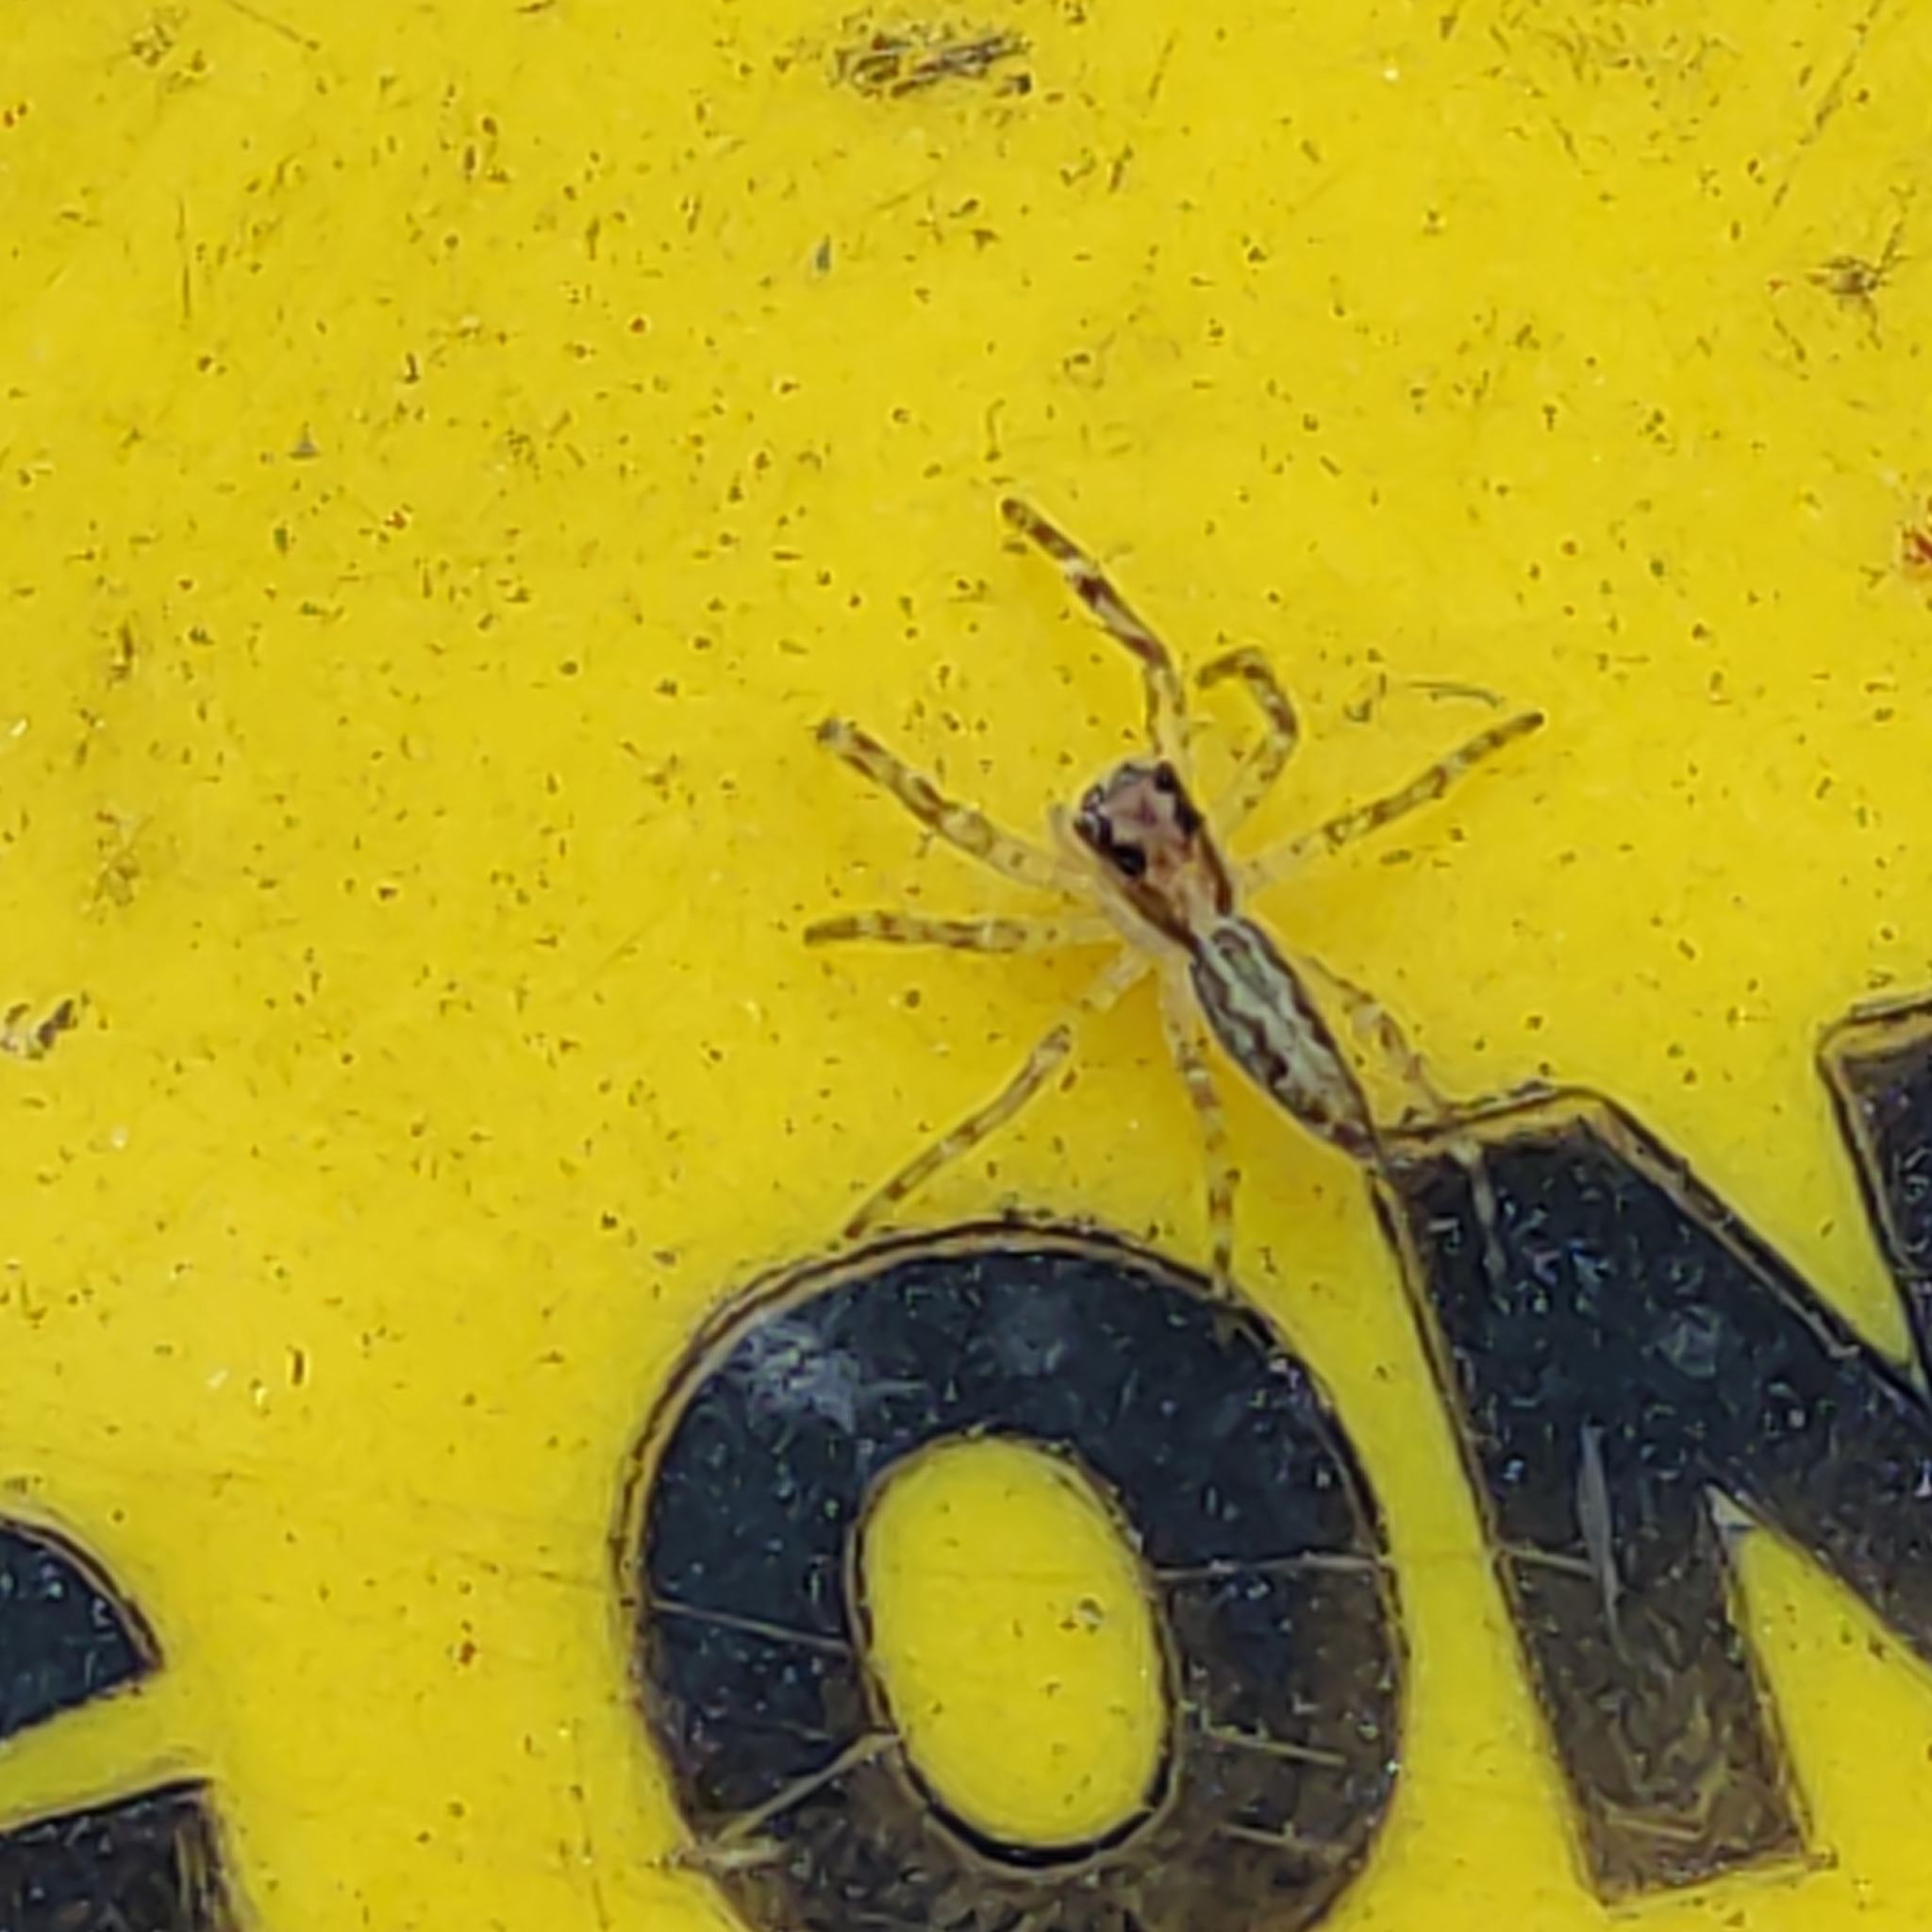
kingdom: Animalia
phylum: Arthropoda
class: Arachnida
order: Araneae
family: Salticidae
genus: Helpis
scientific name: Helpis minitabunda
